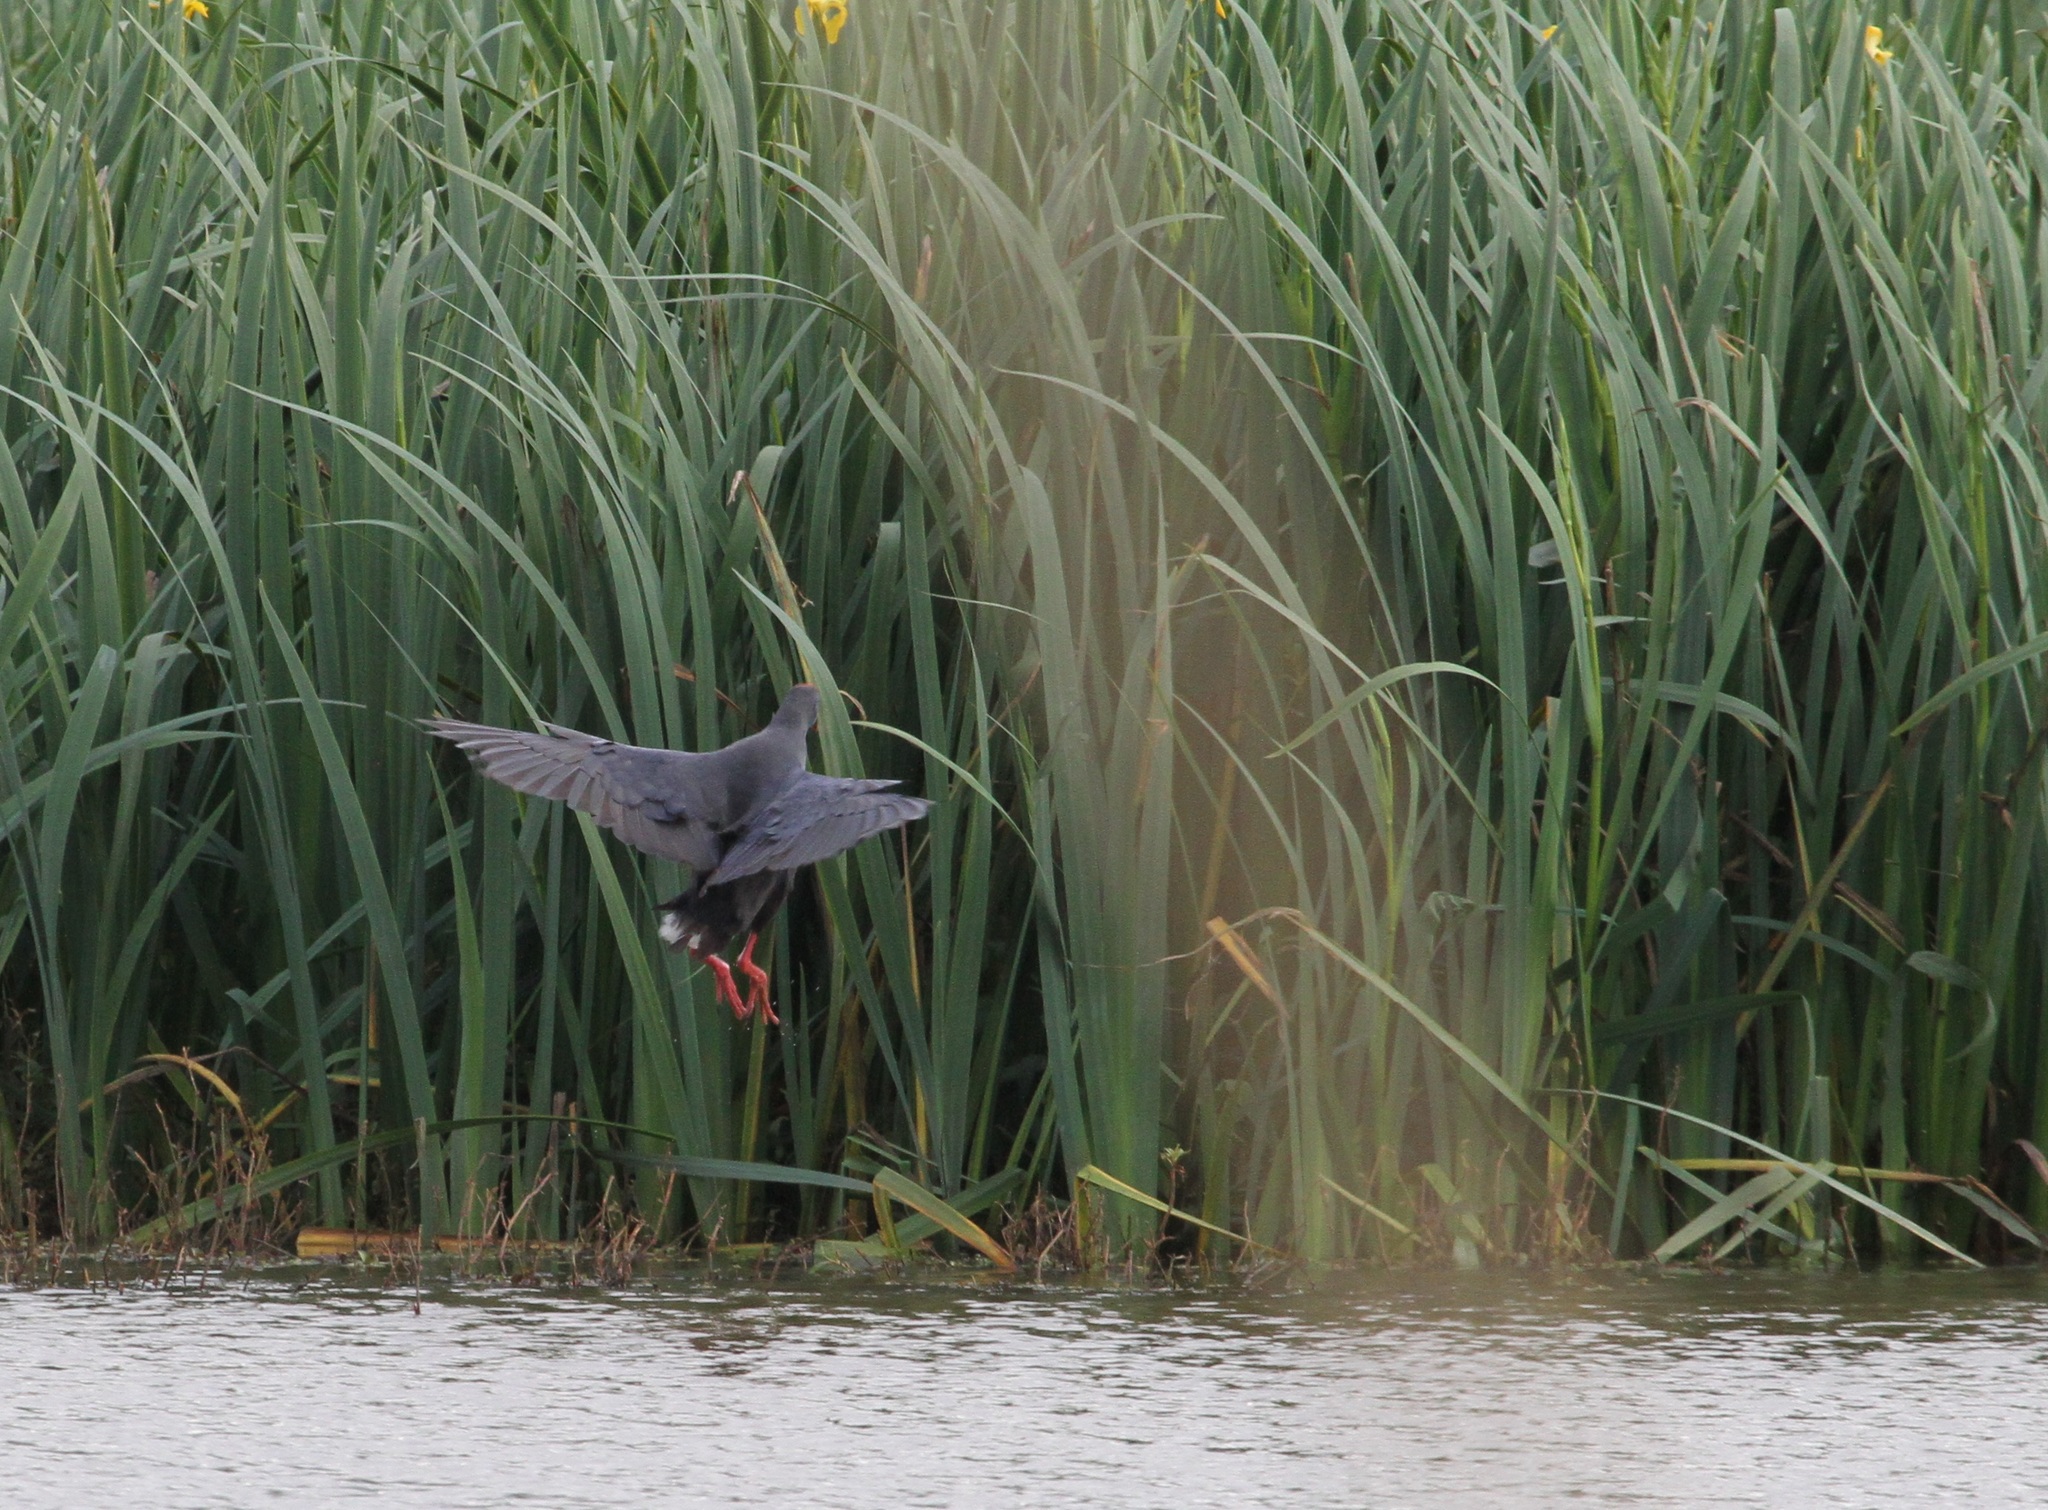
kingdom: Animalia
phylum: Chordata
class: Aves
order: Gruiformes
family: Rallidae
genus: Porphyrio
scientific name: Porphyrio porphyrio
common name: Purple swamphen
